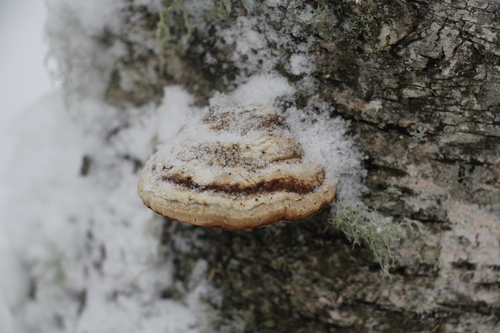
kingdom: Fungi
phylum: Basidiomycota
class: Agaricomycetes
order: Polyporales
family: Polyporaceae
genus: Fomes
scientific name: Fomes fomentarius
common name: Hoof fungus
